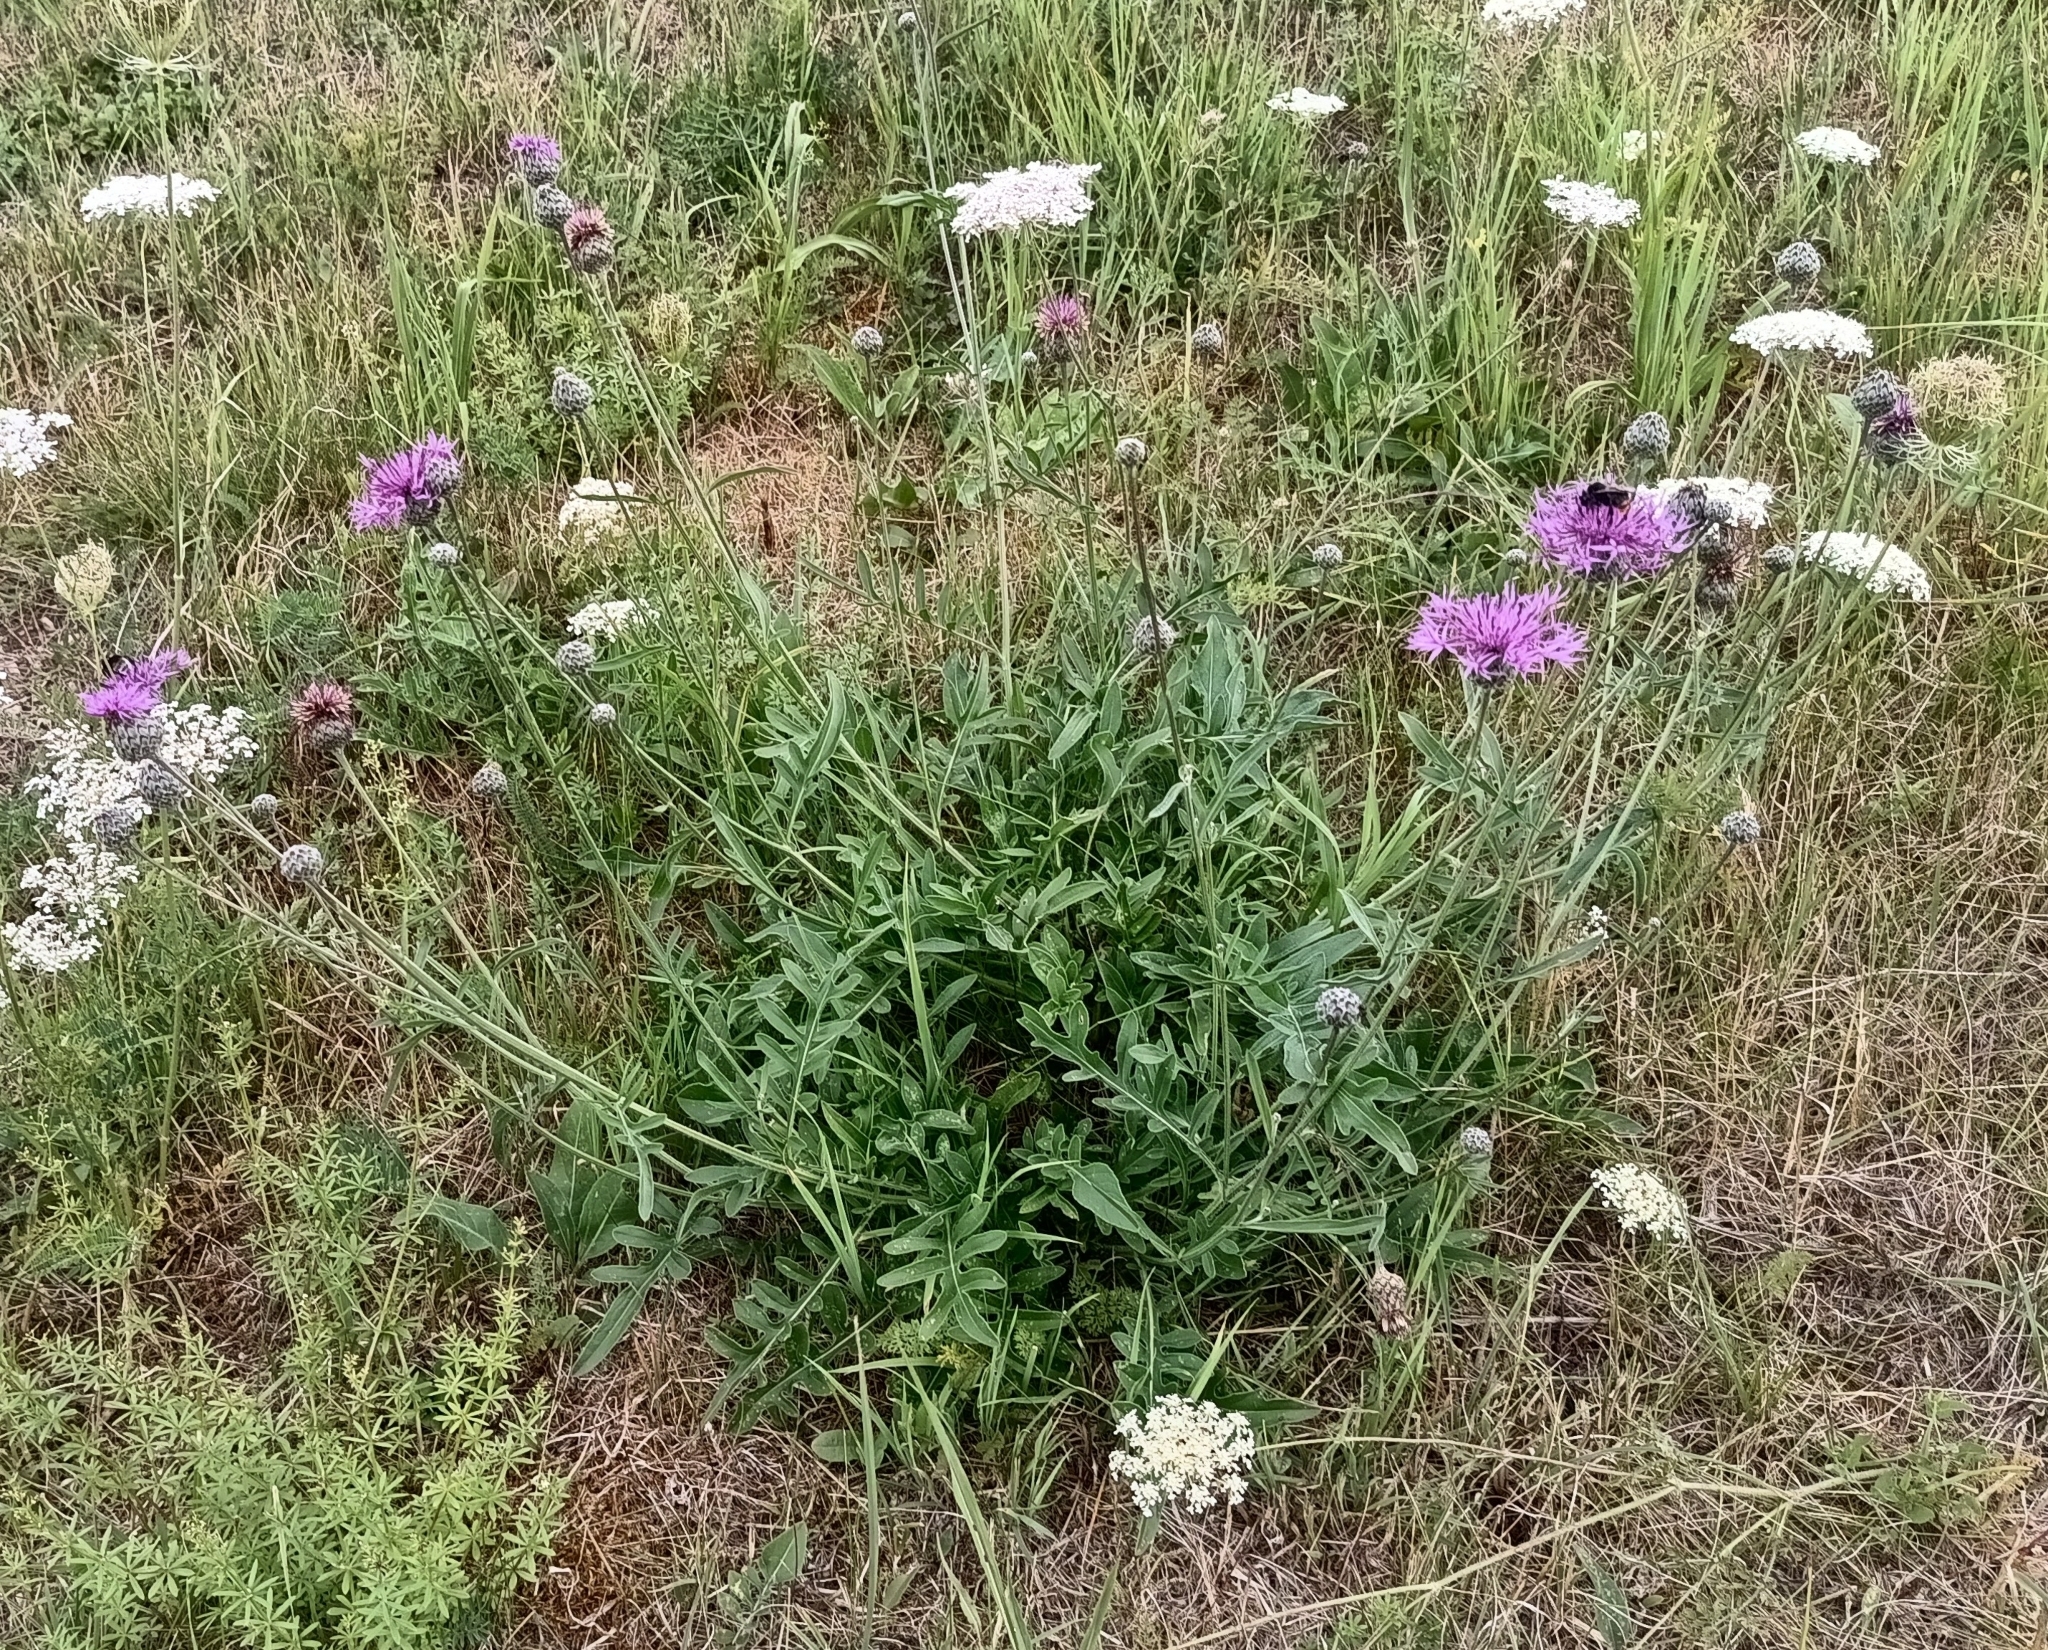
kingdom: Plantae
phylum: Tracheophyta
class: Magnoliopsida
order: Asterales
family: Asteraceae
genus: Centaurea
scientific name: Centaurea scabiosa
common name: Greater knapweed
